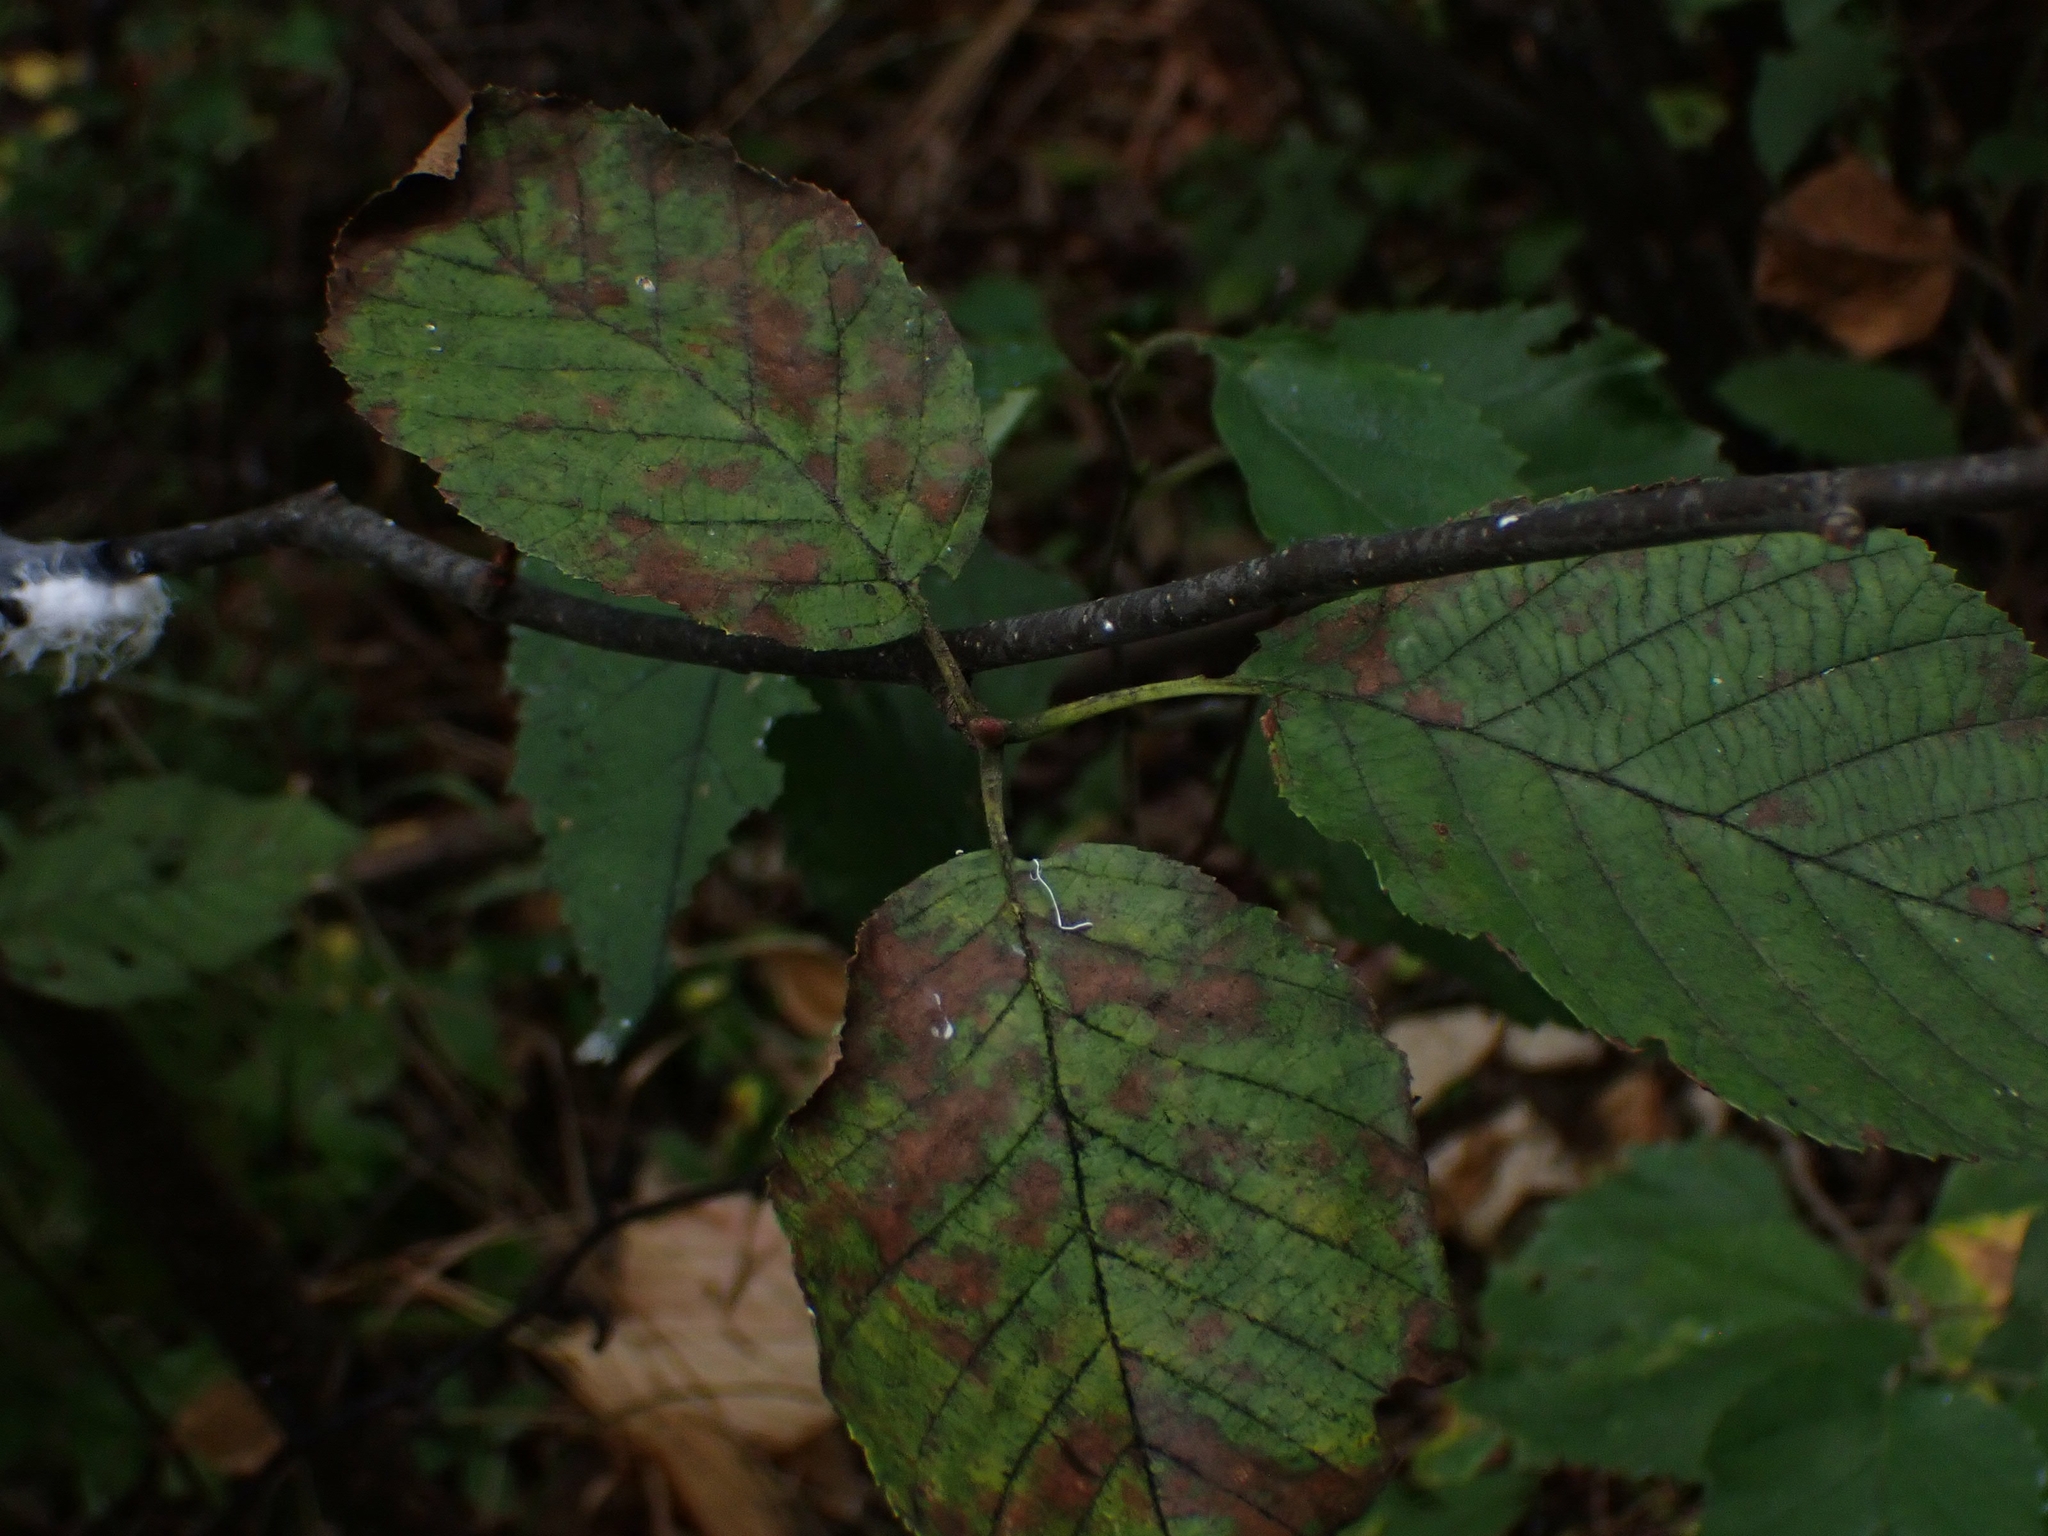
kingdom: Plantae
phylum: Tracheophyta
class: Magnoliopsida
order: Fagales
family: Betulaceae
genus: Alnus
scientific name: Alnus incana
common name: Grey alder
